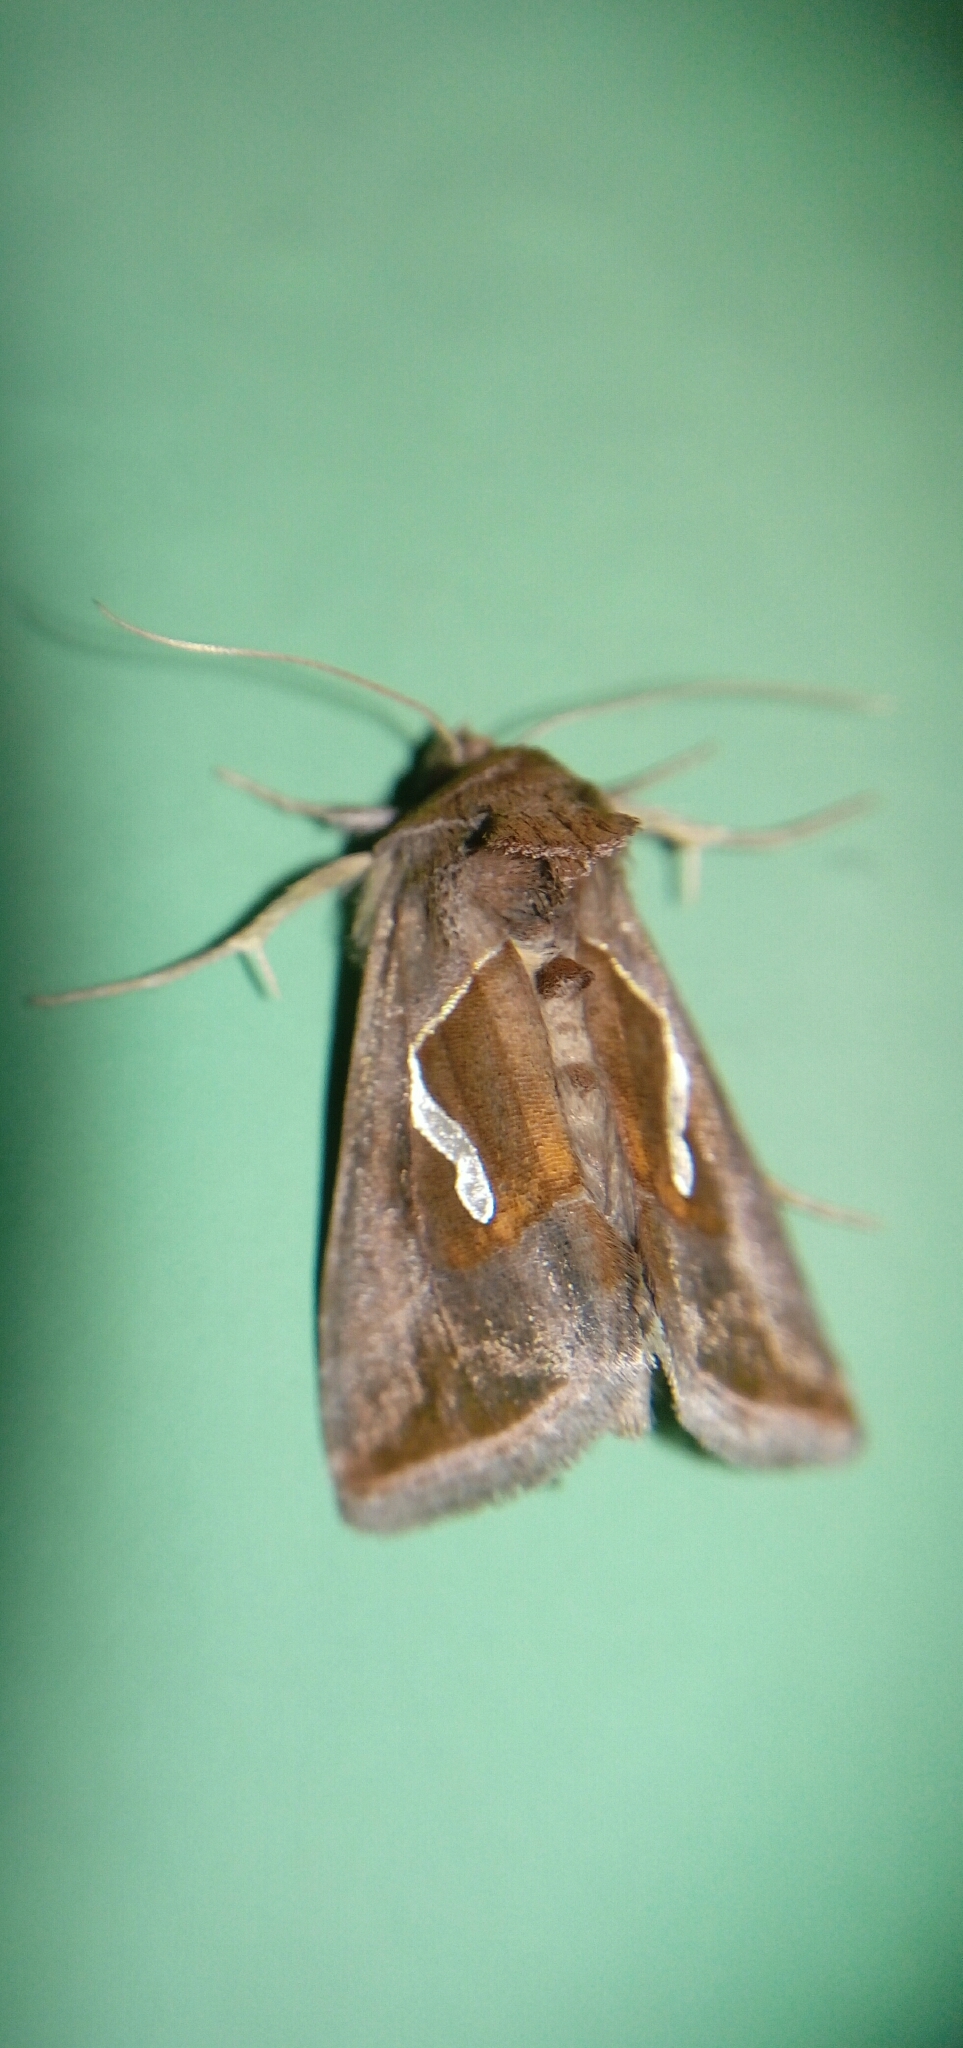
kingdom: Animalia
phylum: Arthropoda
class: Insecta
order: Lepidoptera
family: Noctuidae
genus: Macdunnoughia
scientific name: Macdunnoughia confusa
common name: Dewick's plusia
